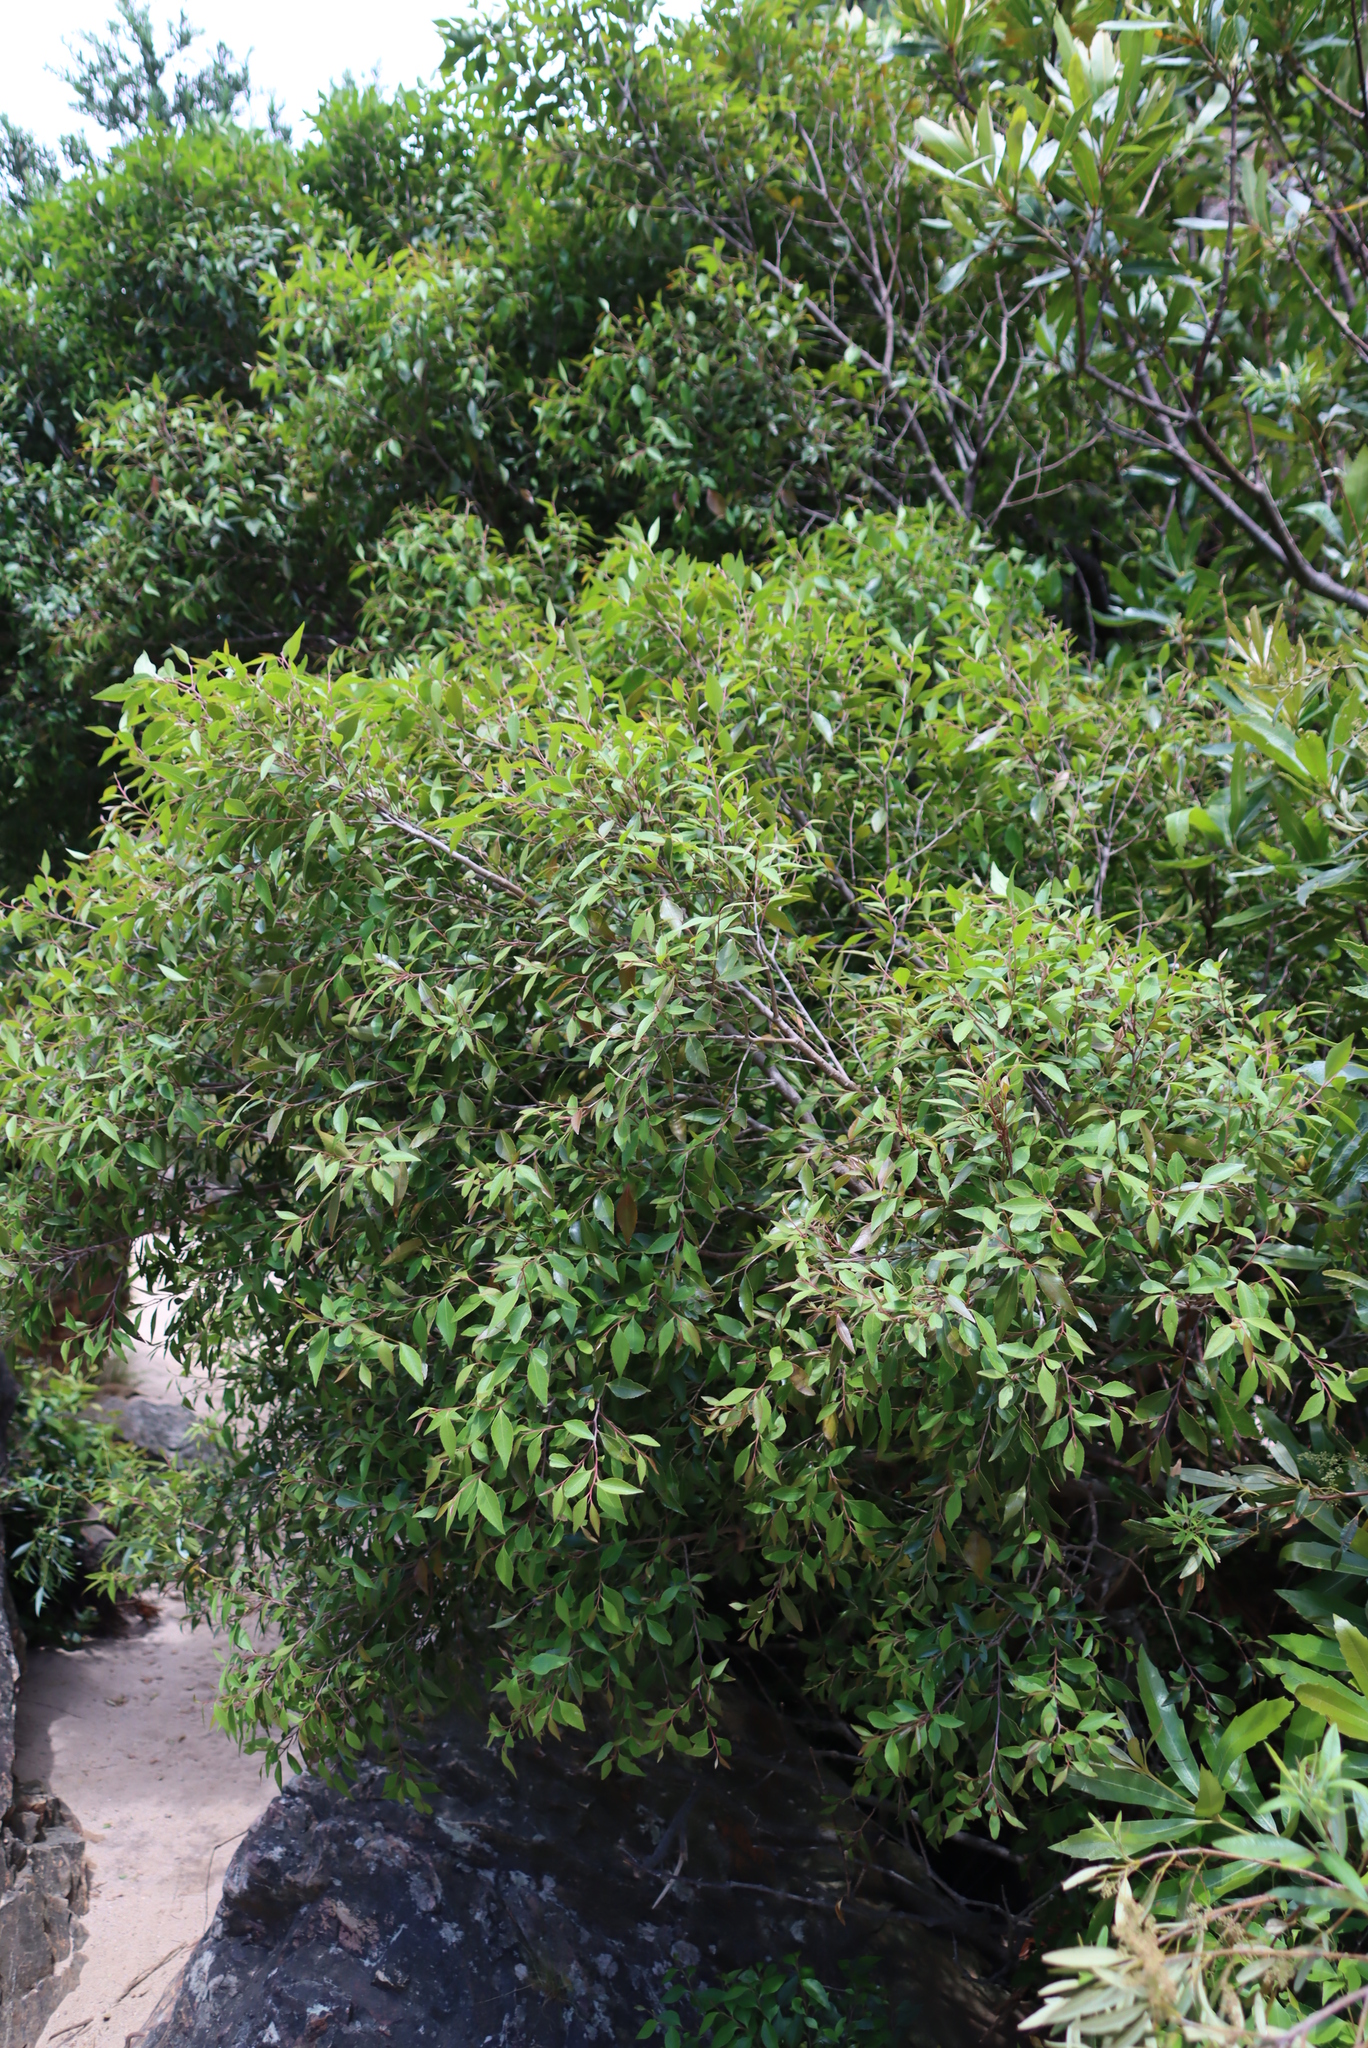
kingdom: Plantae
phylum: Tracheophyta
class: Magnoliopsida
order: Celastrales
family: Celastraceae
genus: Gymnosporia
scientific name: Gymnosporia acuminata
